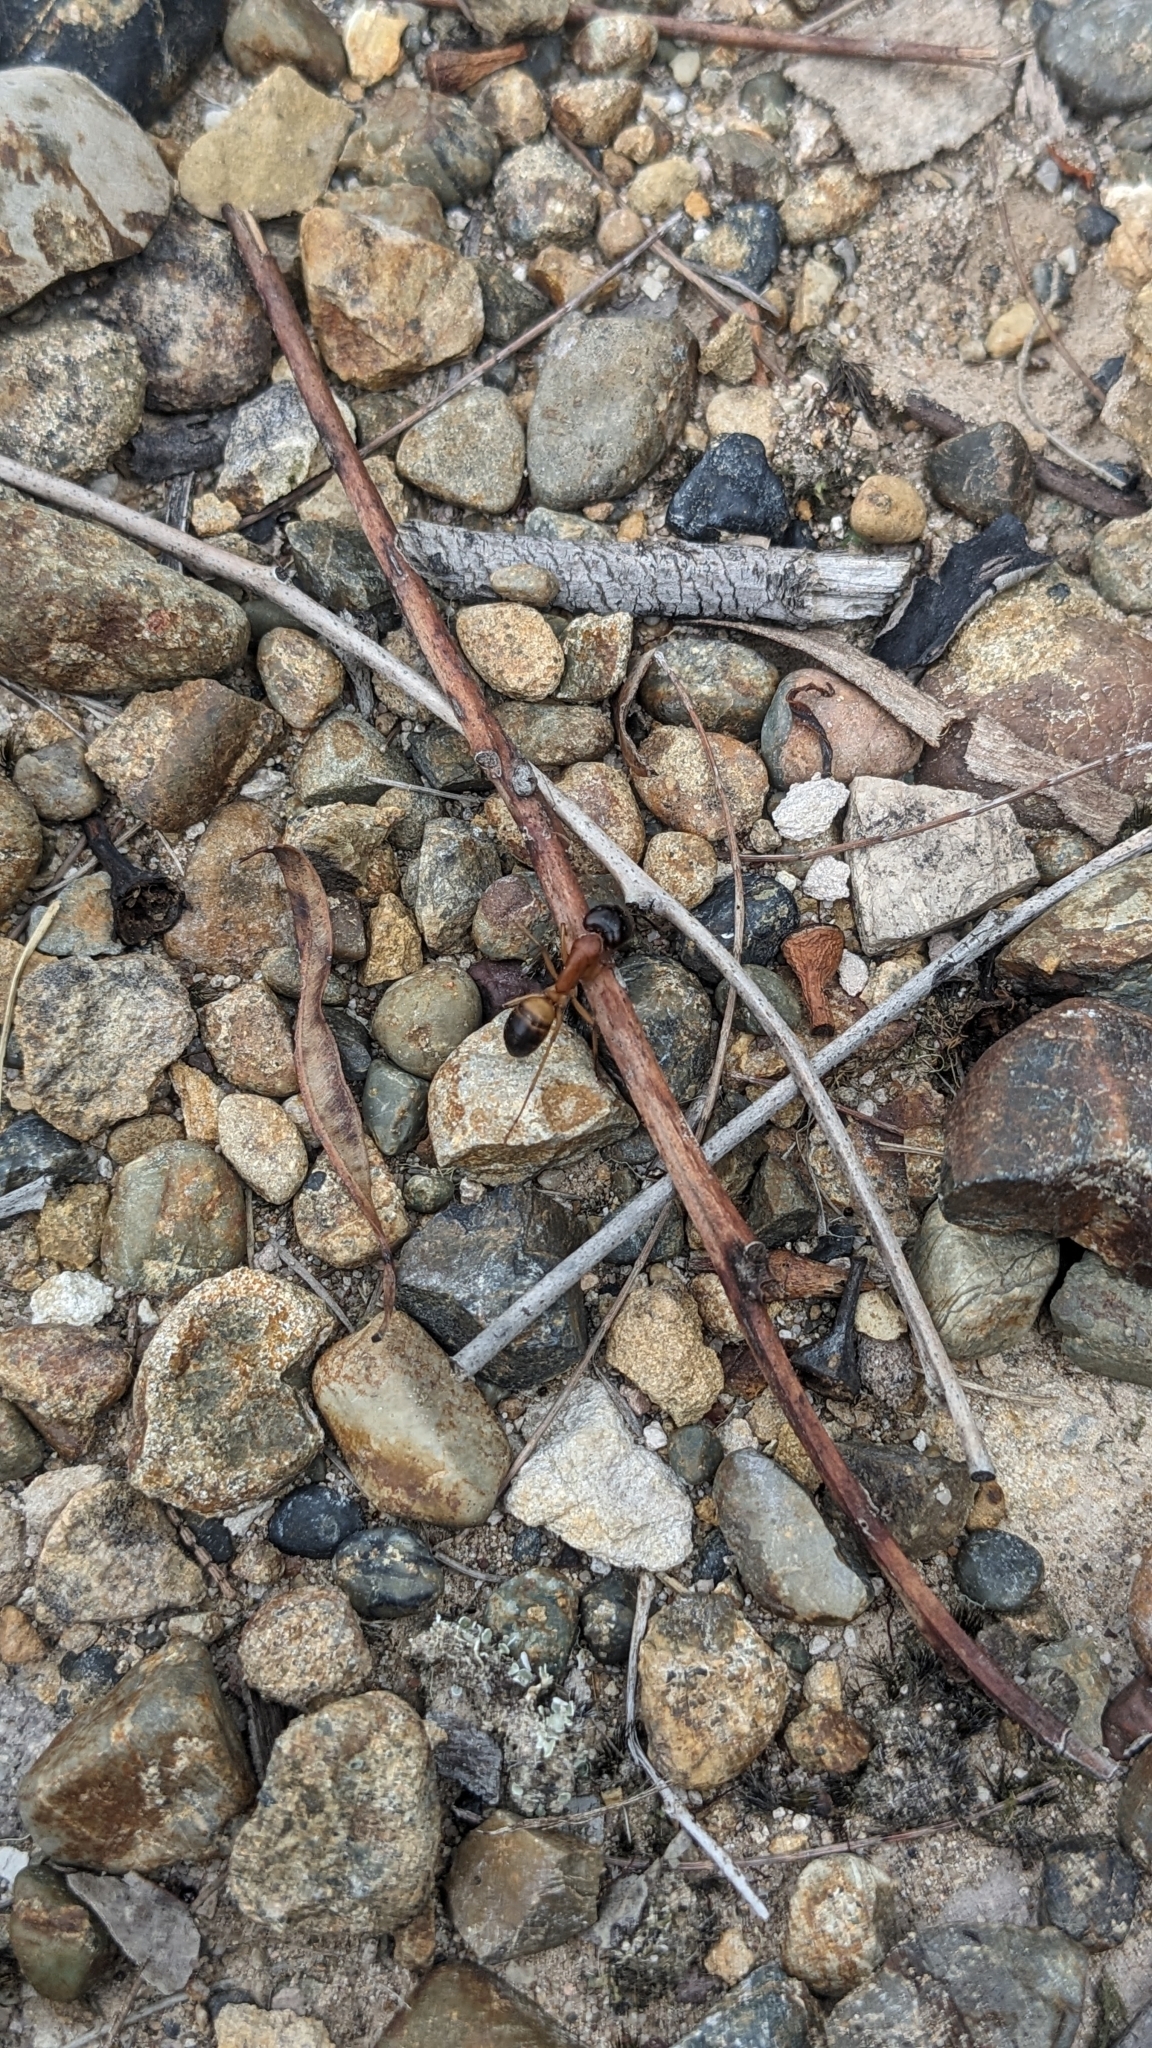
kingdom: Animalia
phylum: Arthropoda
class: Insecta
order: Hymenoptera
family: Formicidae
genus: Camponotus
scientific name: Camponotus consobrinus
